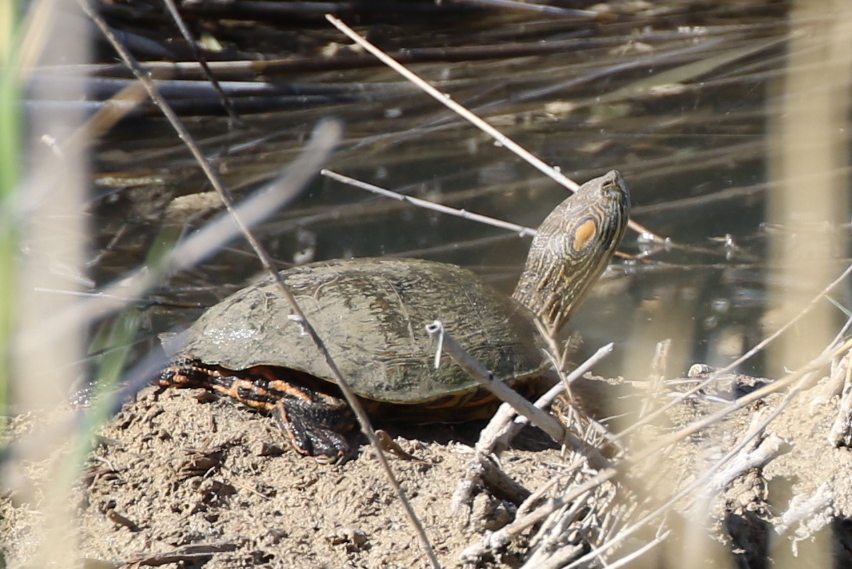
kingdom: Animalia
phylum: Chordata
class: Testudines
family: Emydidae
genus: Trachemys
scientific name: Trachemys gaigeae
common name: Big bend slider
